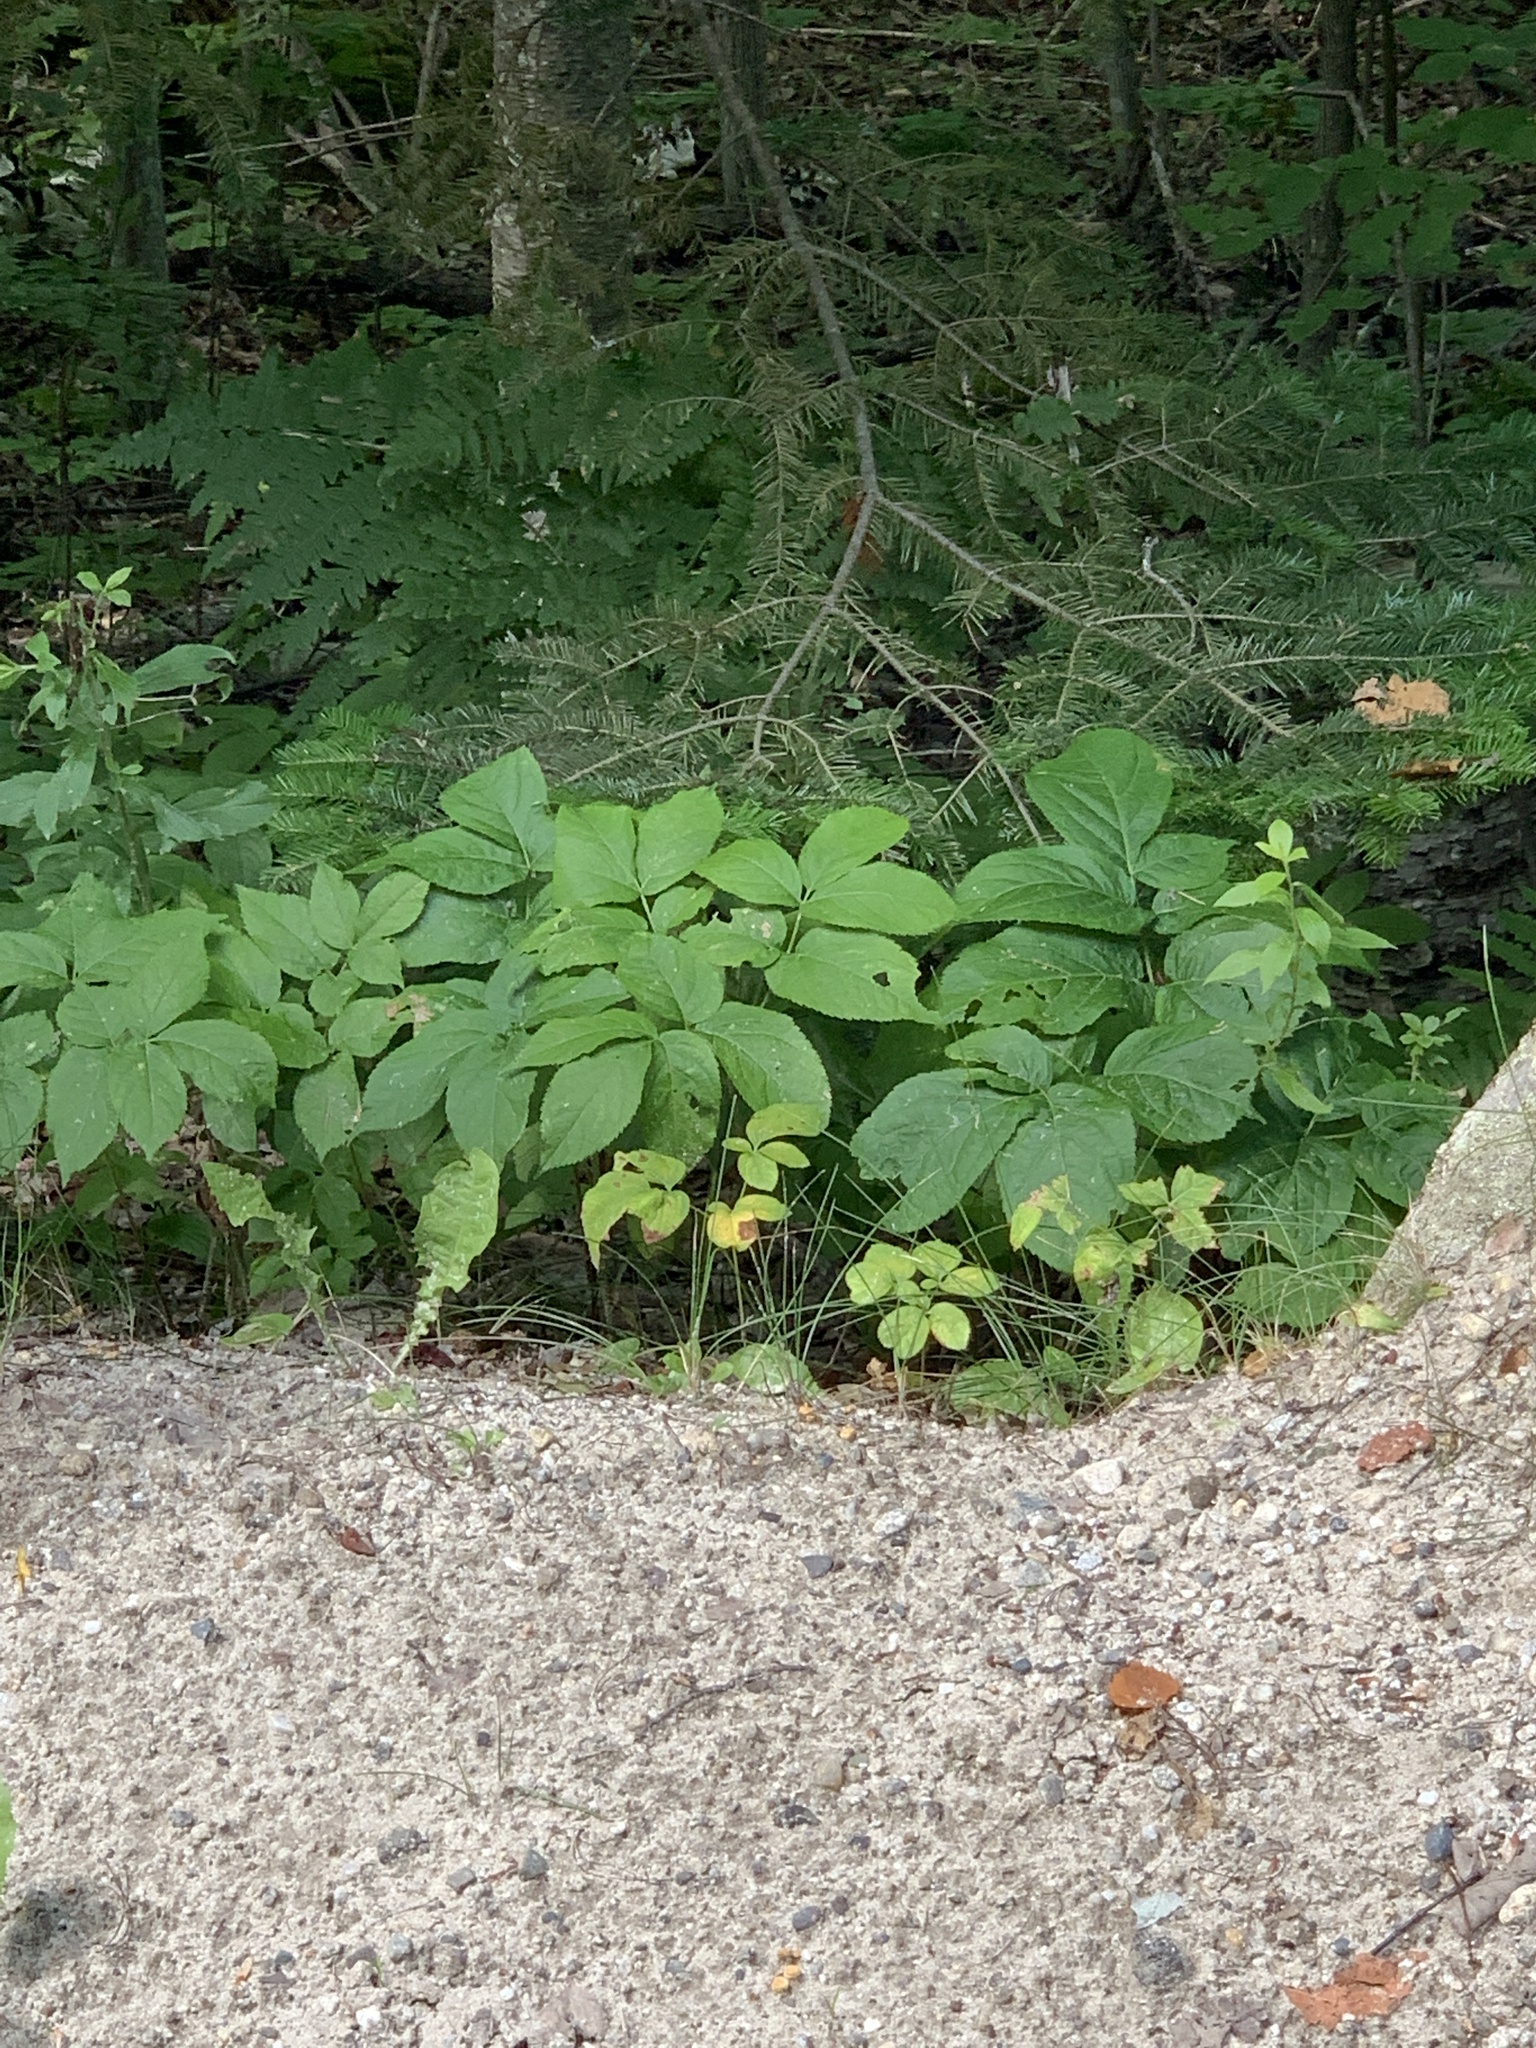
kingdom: Plantae
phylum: Tracheophyta
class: Magnoliopsida
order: Apiales
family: Araliaceae
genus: Aralia
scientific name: Aralia nudicaulis
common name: Wild sarsaparilla
